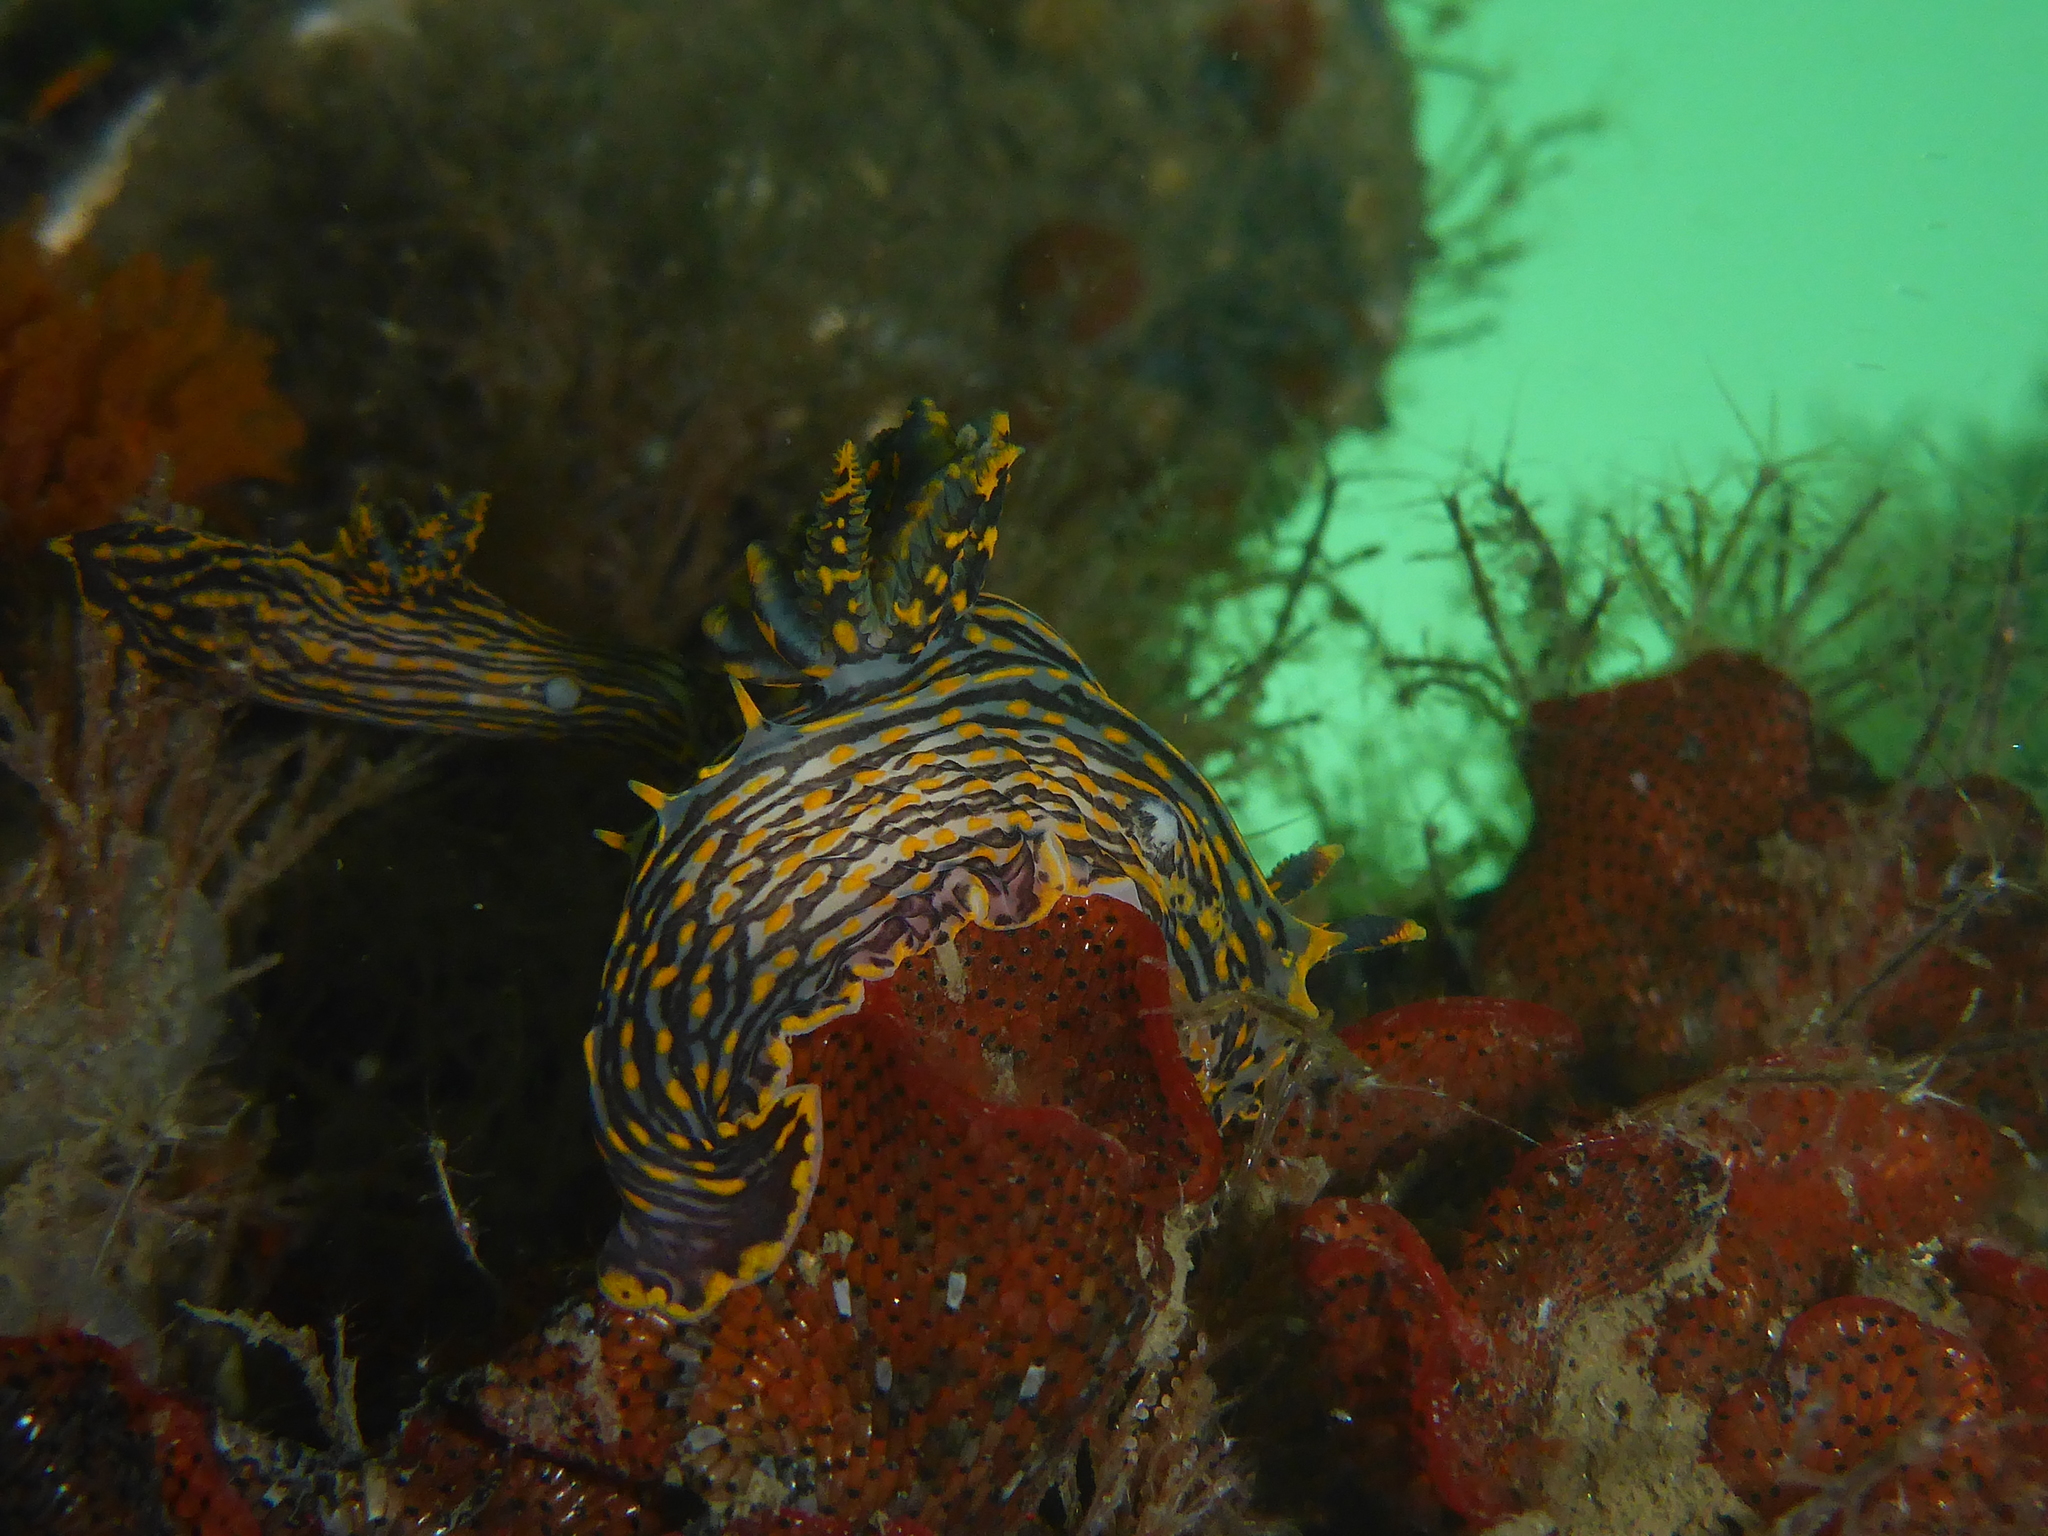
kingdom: Animalia
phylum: Mollusca
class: Gastropoda
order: Nudibranchia
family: Polyceridae
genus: Polycera
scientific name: Polycera atra
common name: Orange-spike polycera
